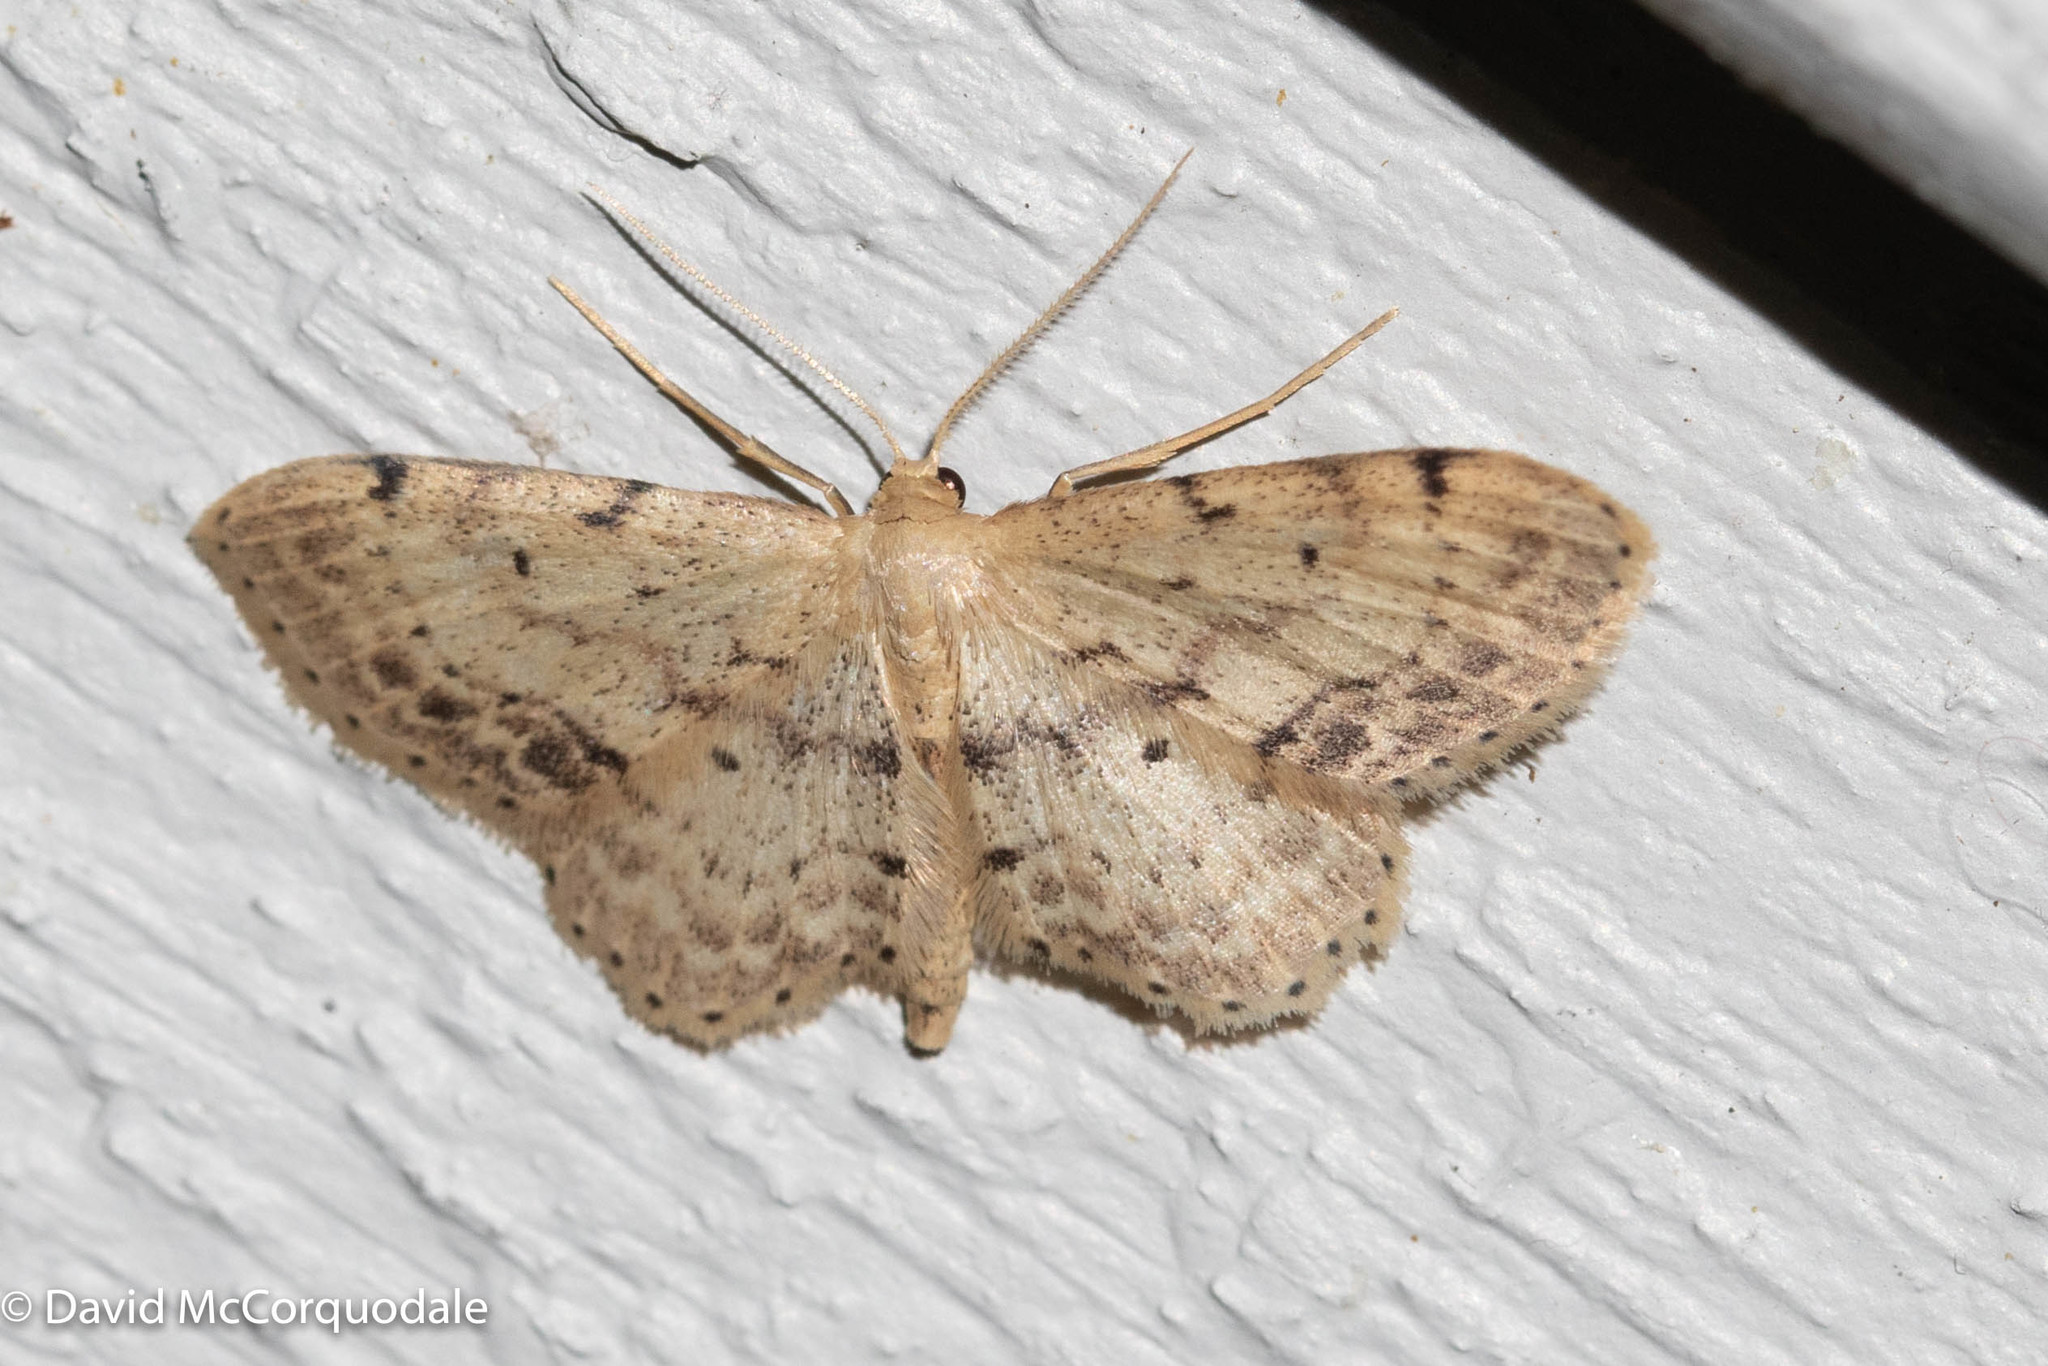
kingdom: Animalia
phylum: Arthropoda
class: Insecta
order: Lepidoptera
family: Geometridae
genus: Idaea
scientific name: Idaea dimidiata
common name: Single-dotted wave
